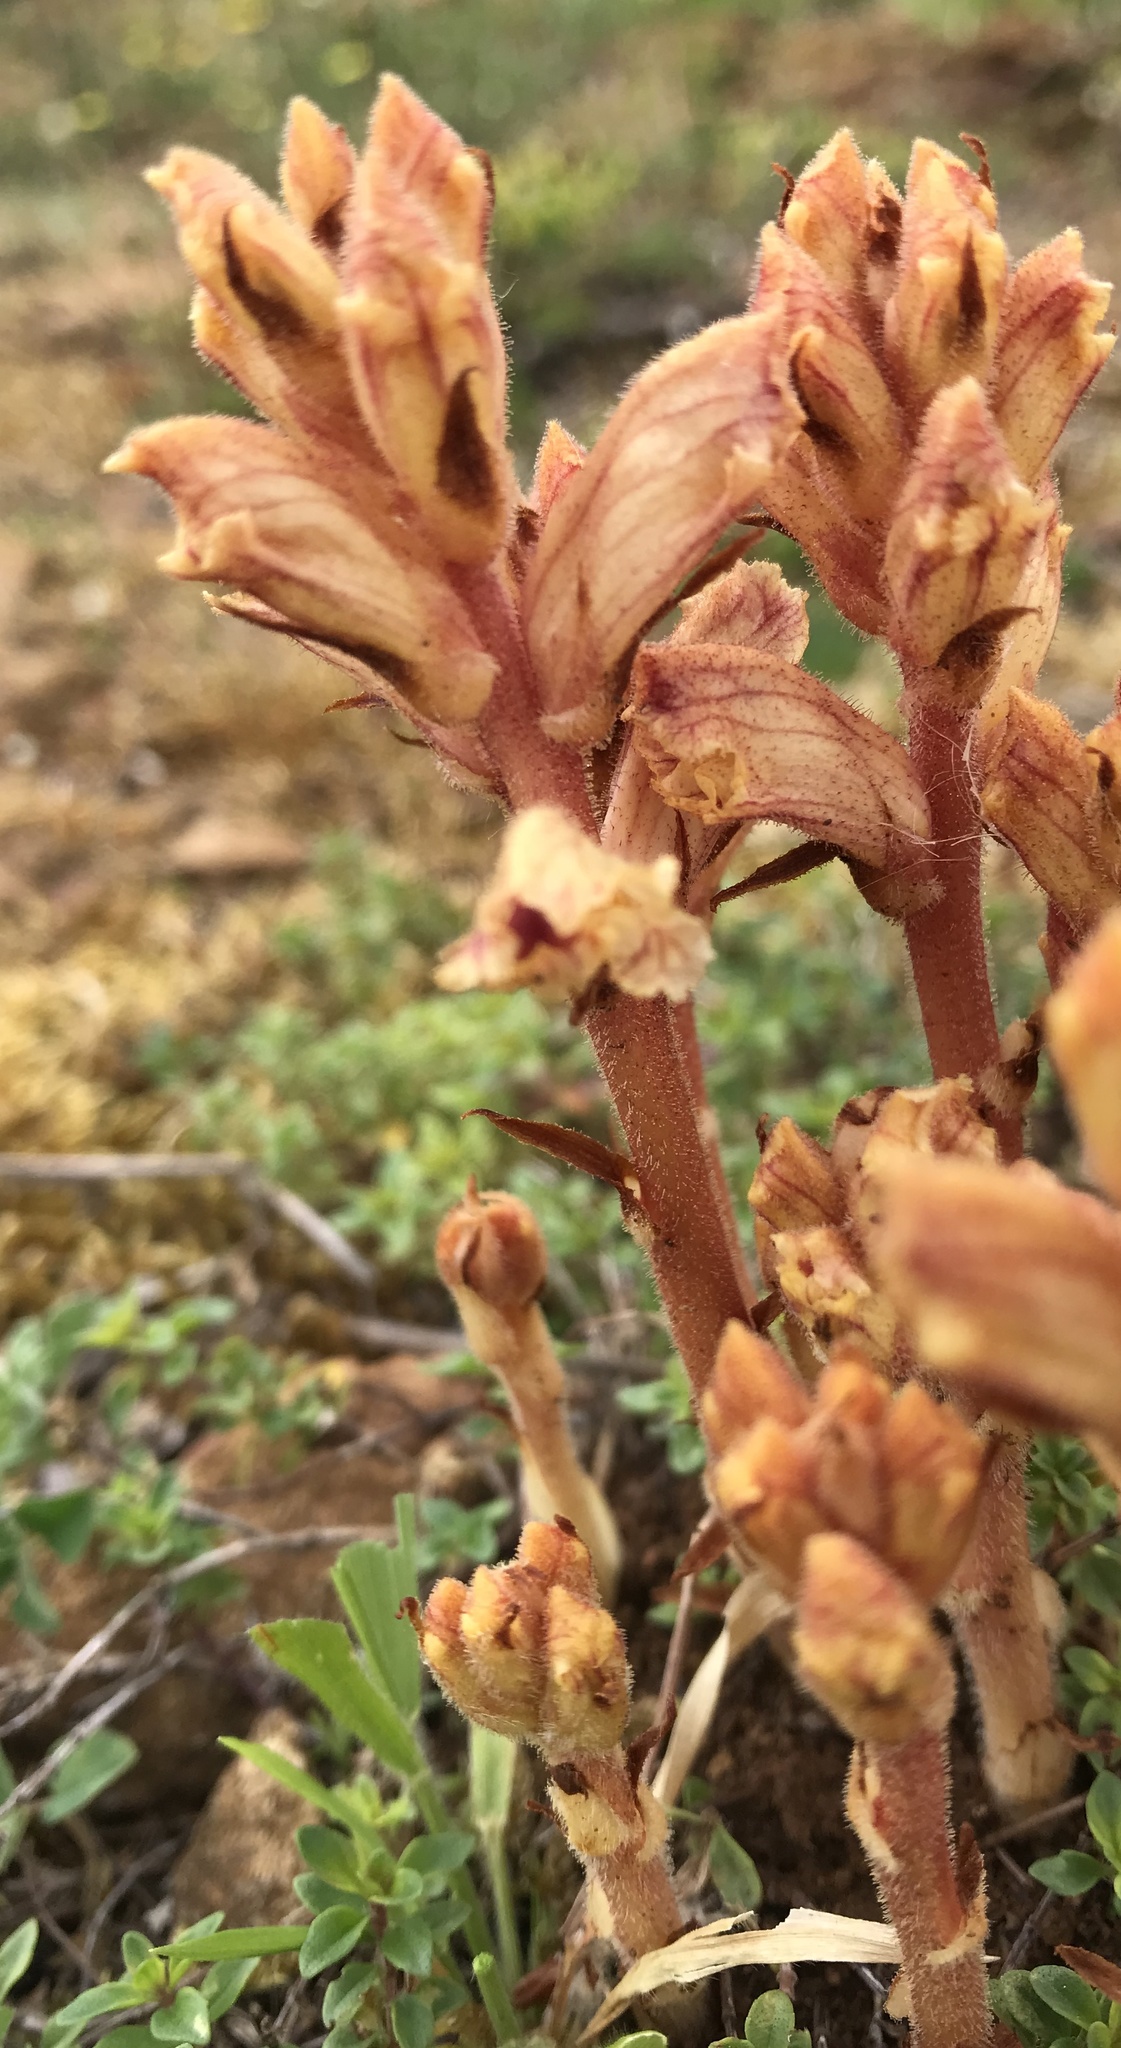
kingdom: Plantae
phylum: Tracheophyta
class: Magnoliopsida
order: Lamiales
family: Orobanchaceae
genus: Orobanche
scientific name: Orobanche alba
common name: Thyme broomrape
